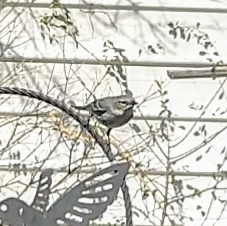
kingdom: Animalia
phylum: Chordata
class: Aves
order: Passeriformes
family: Parulidae
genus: Setophaga
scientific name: Setophaga coronata
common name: Myrtle warbler
